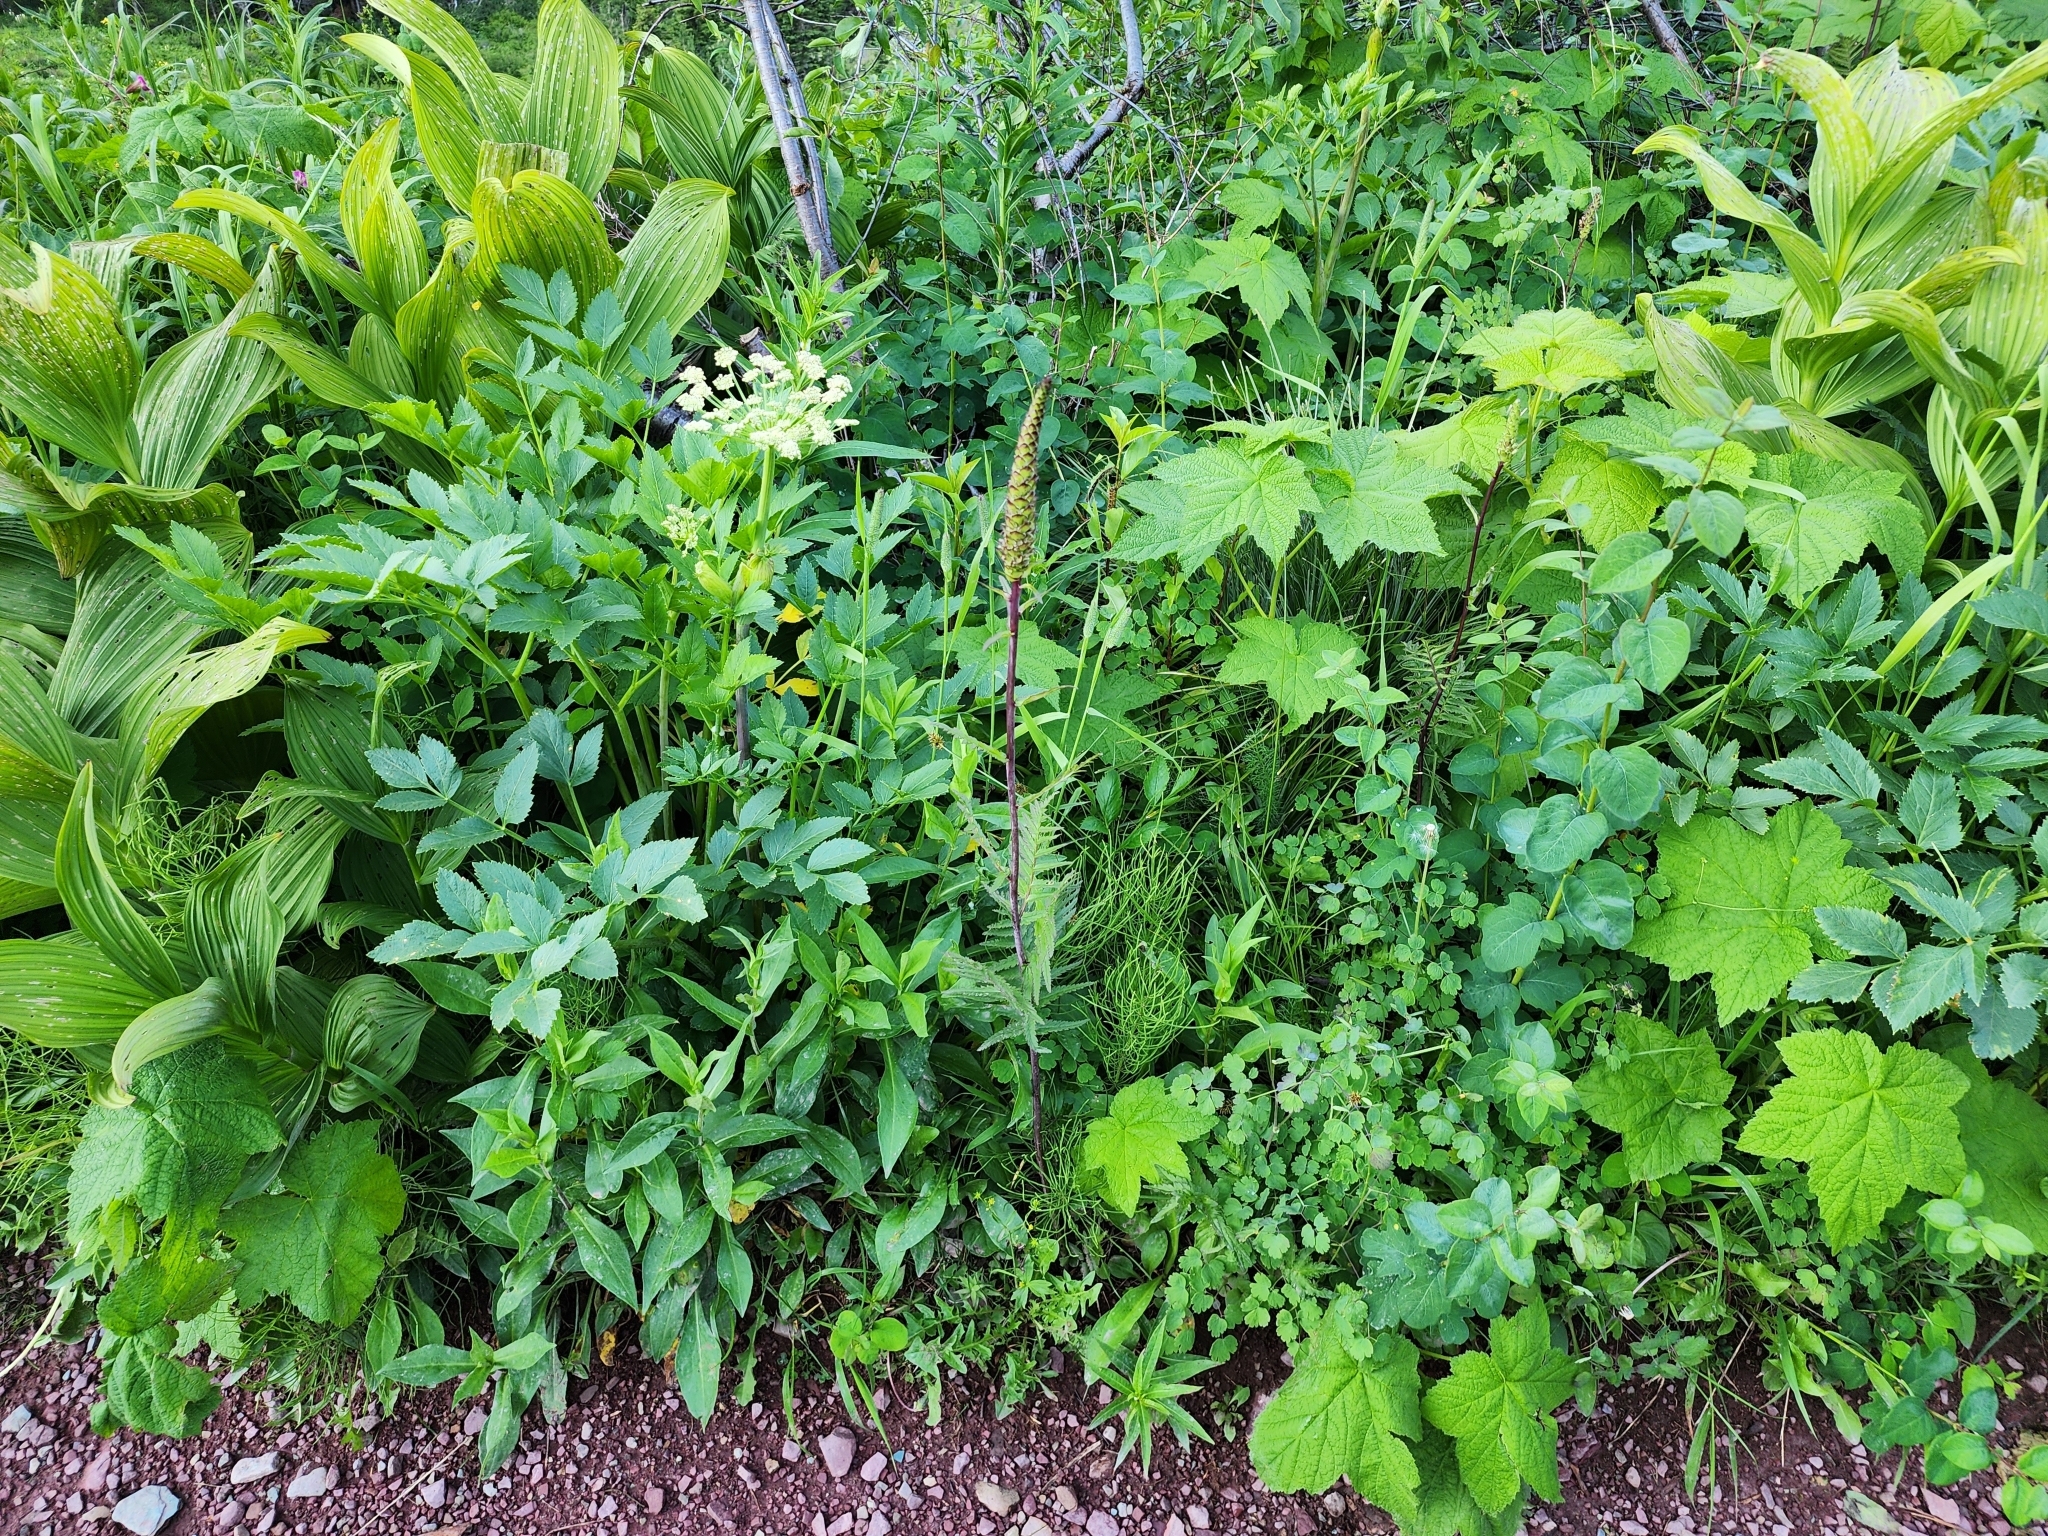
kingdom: Plantae
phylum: Tracheophyta
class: Magnoliopsida
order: Lamiales
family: Orobanchaceae
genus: Pedicularis
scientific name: Pedicularis bracteosa
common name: Bracted lousewort
